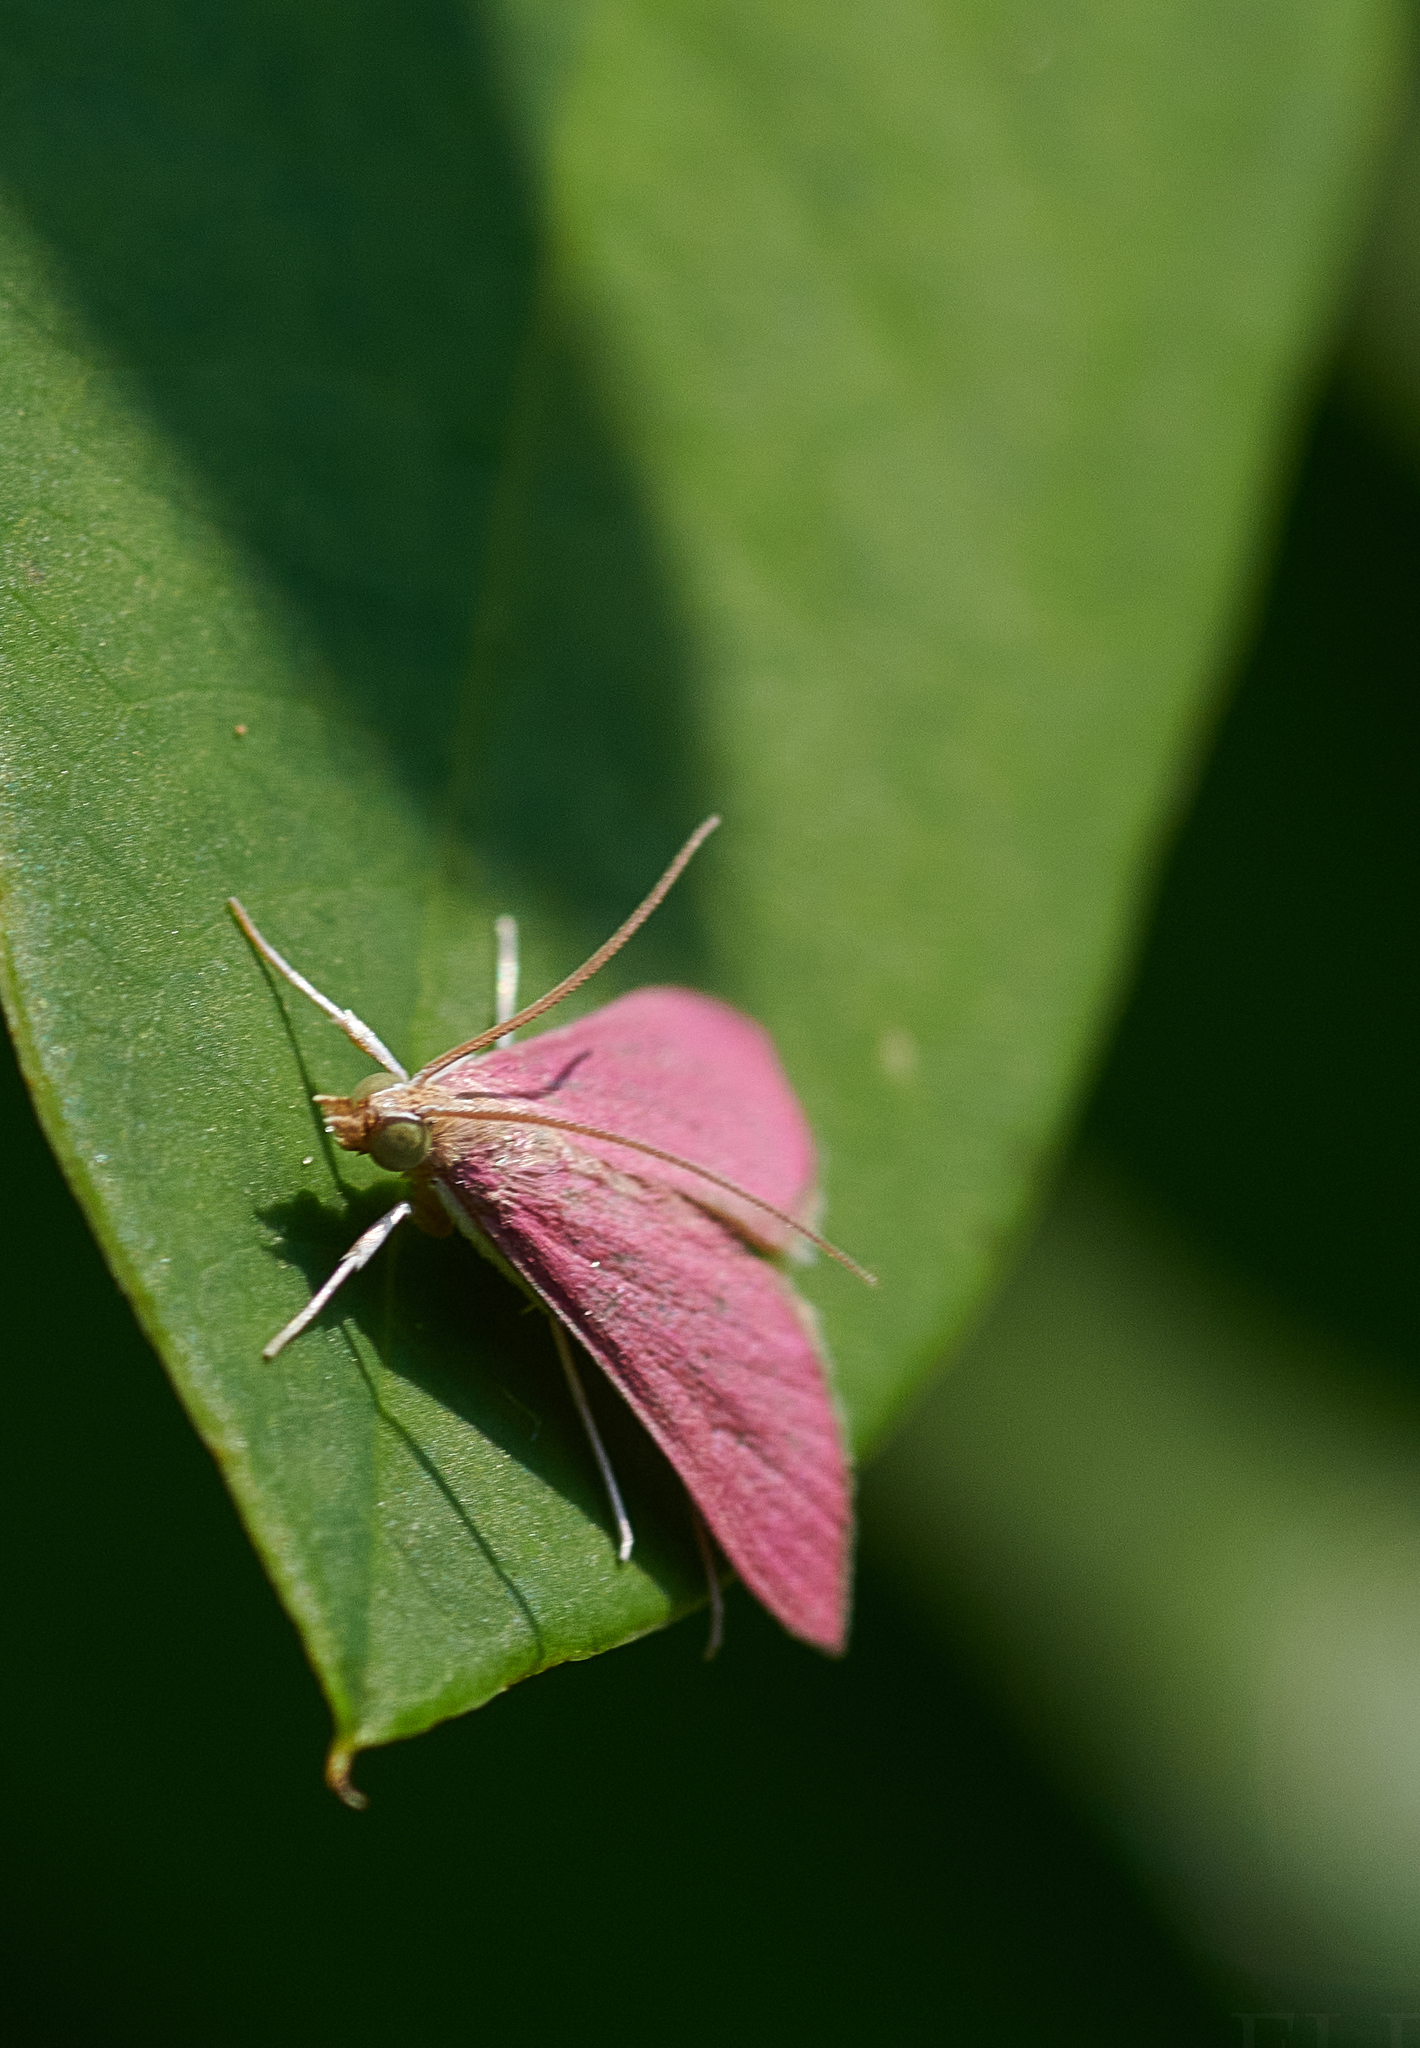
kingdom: Animalia
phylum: Arthropoda
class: Insecta
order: Lepidoptera
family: Crambidae
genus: Pyrausta
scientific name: Pyrausta inornatalis
